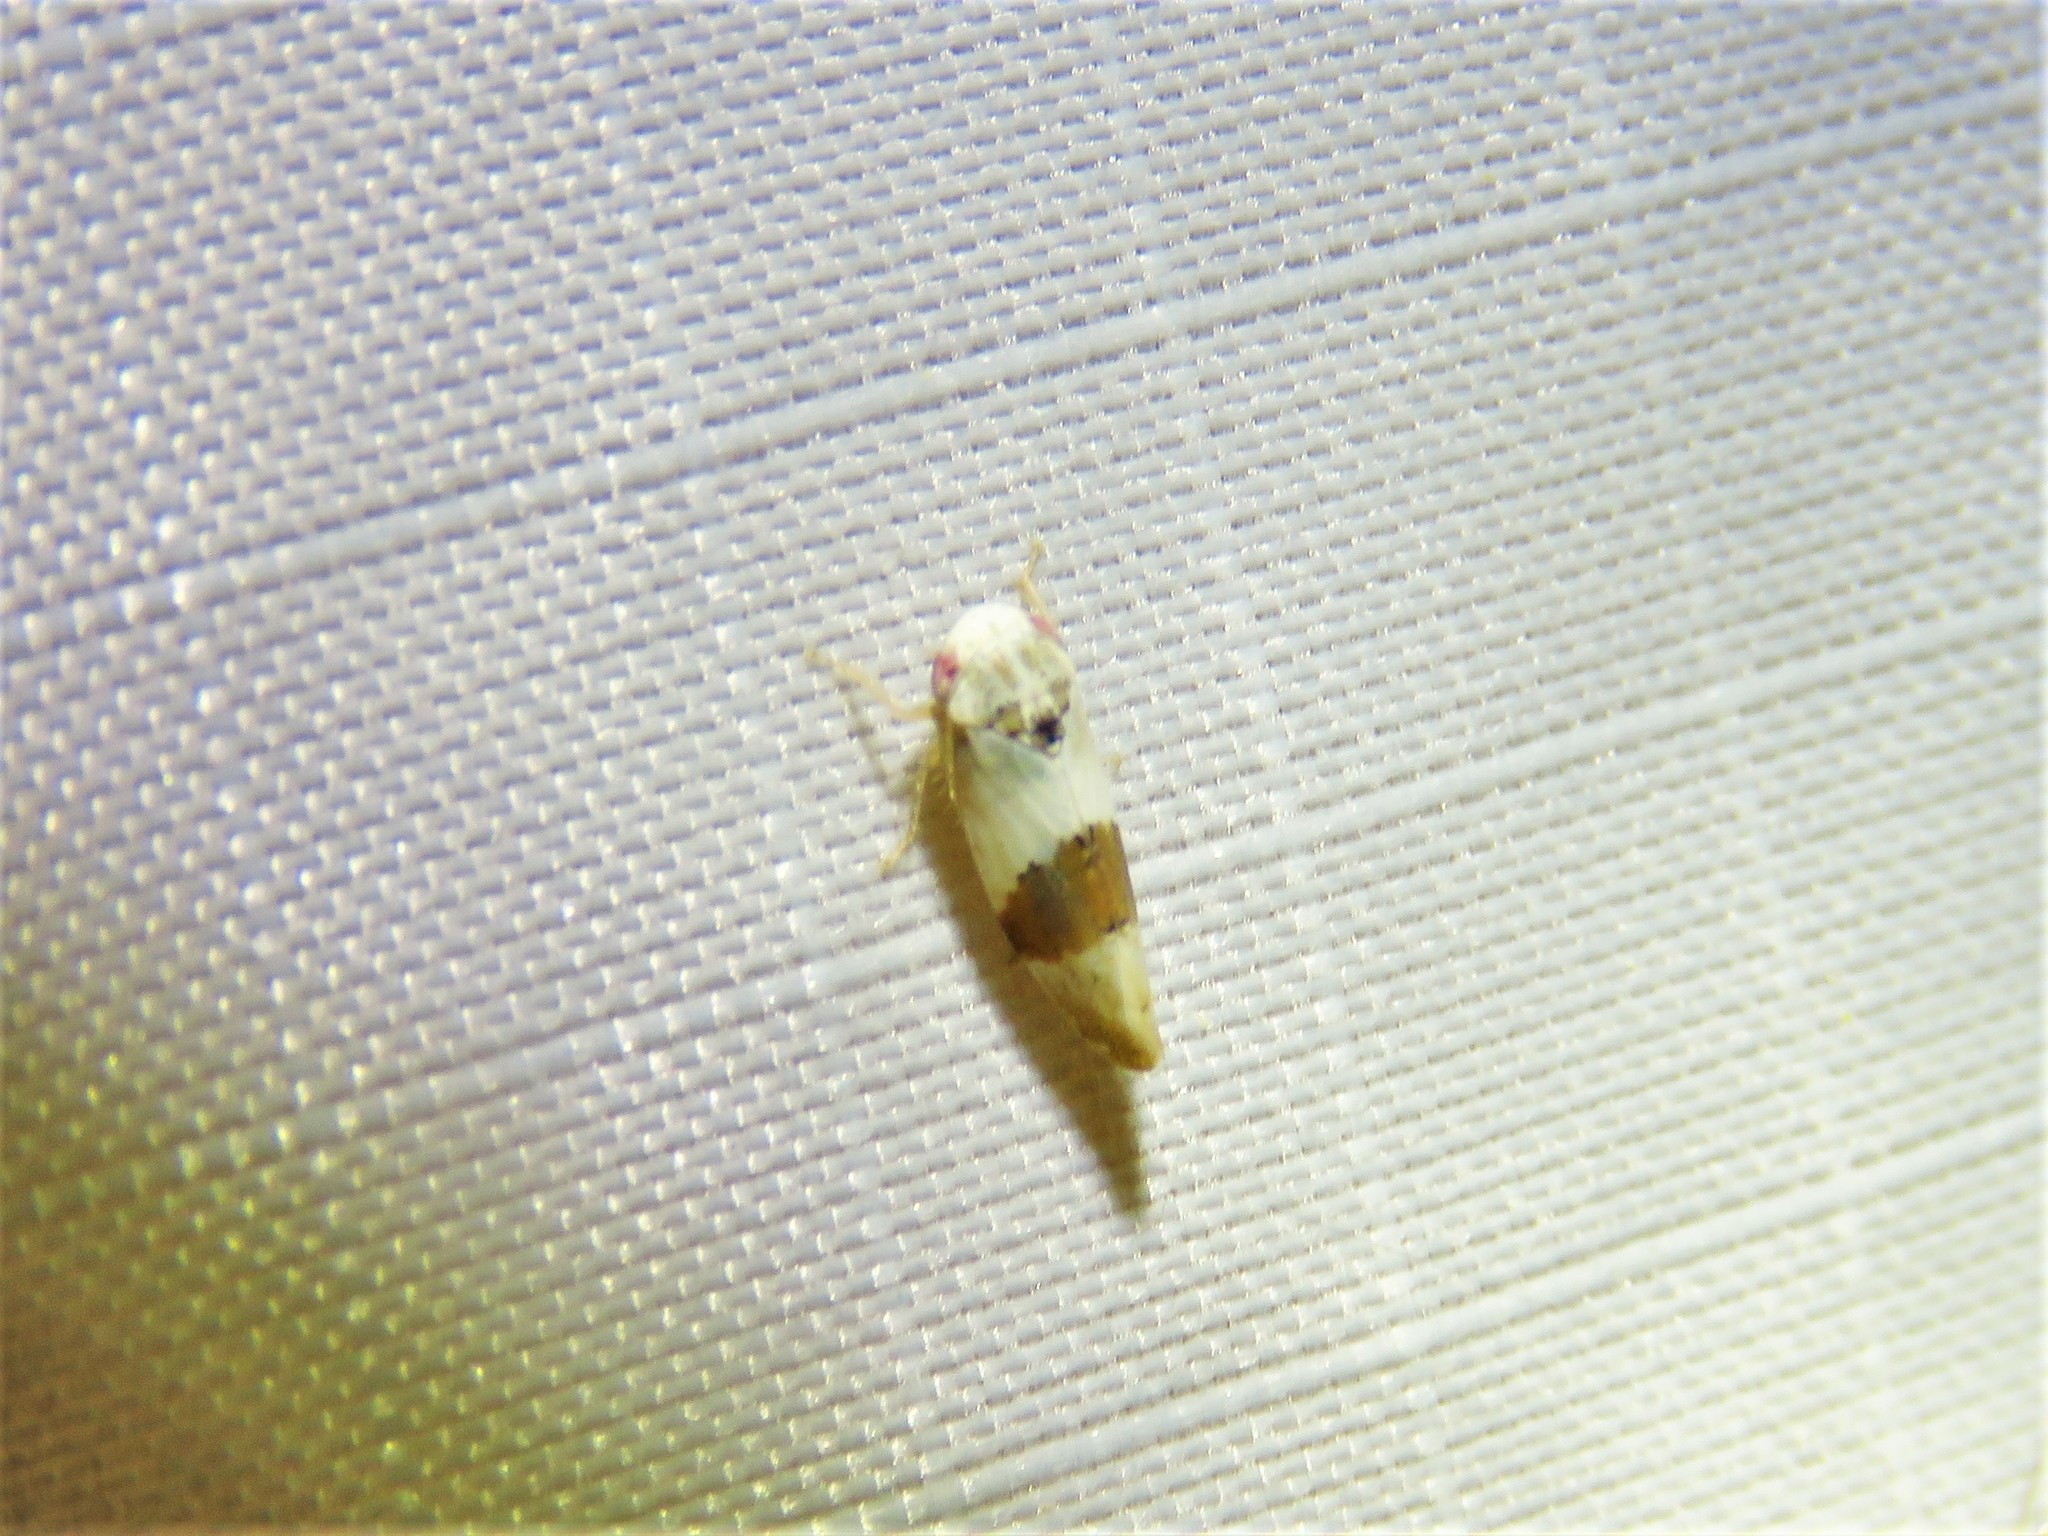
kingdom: Animalia
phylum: Arthropoda
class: Insecta
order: Hemiptera
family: Cicadellidae
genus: Norvellina
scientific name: Norvellina seminuda
